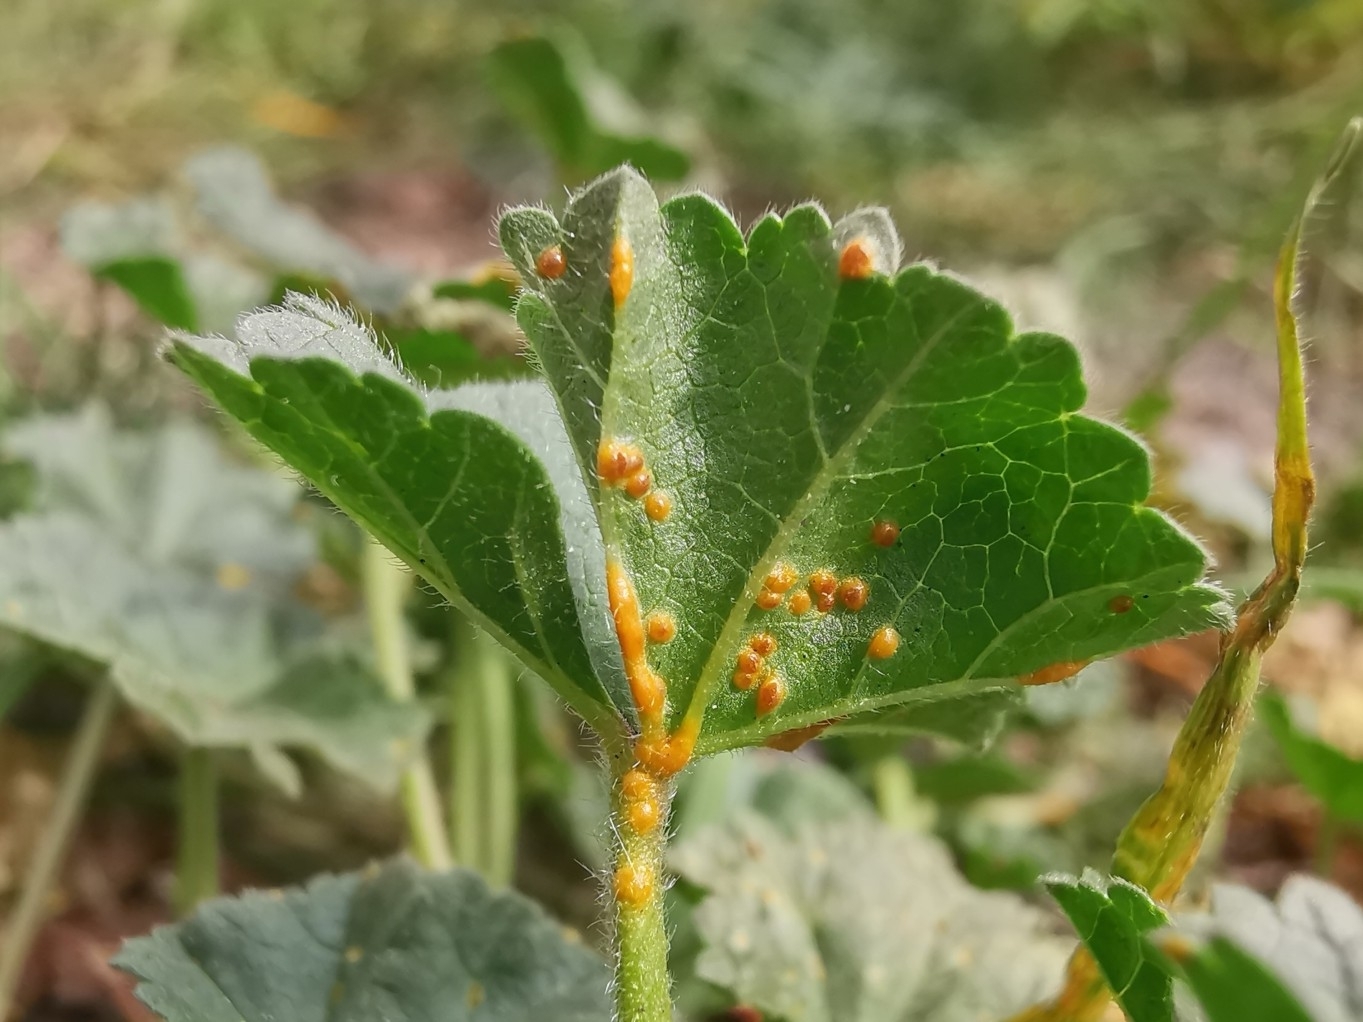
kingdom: Fungi
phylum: Basidiomycota
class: Pucciniomycetes
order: Pucciniales
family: Pucciniaceae
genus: Puccinia
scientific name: Puccinia malvacearum
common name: Hollyhock rust
